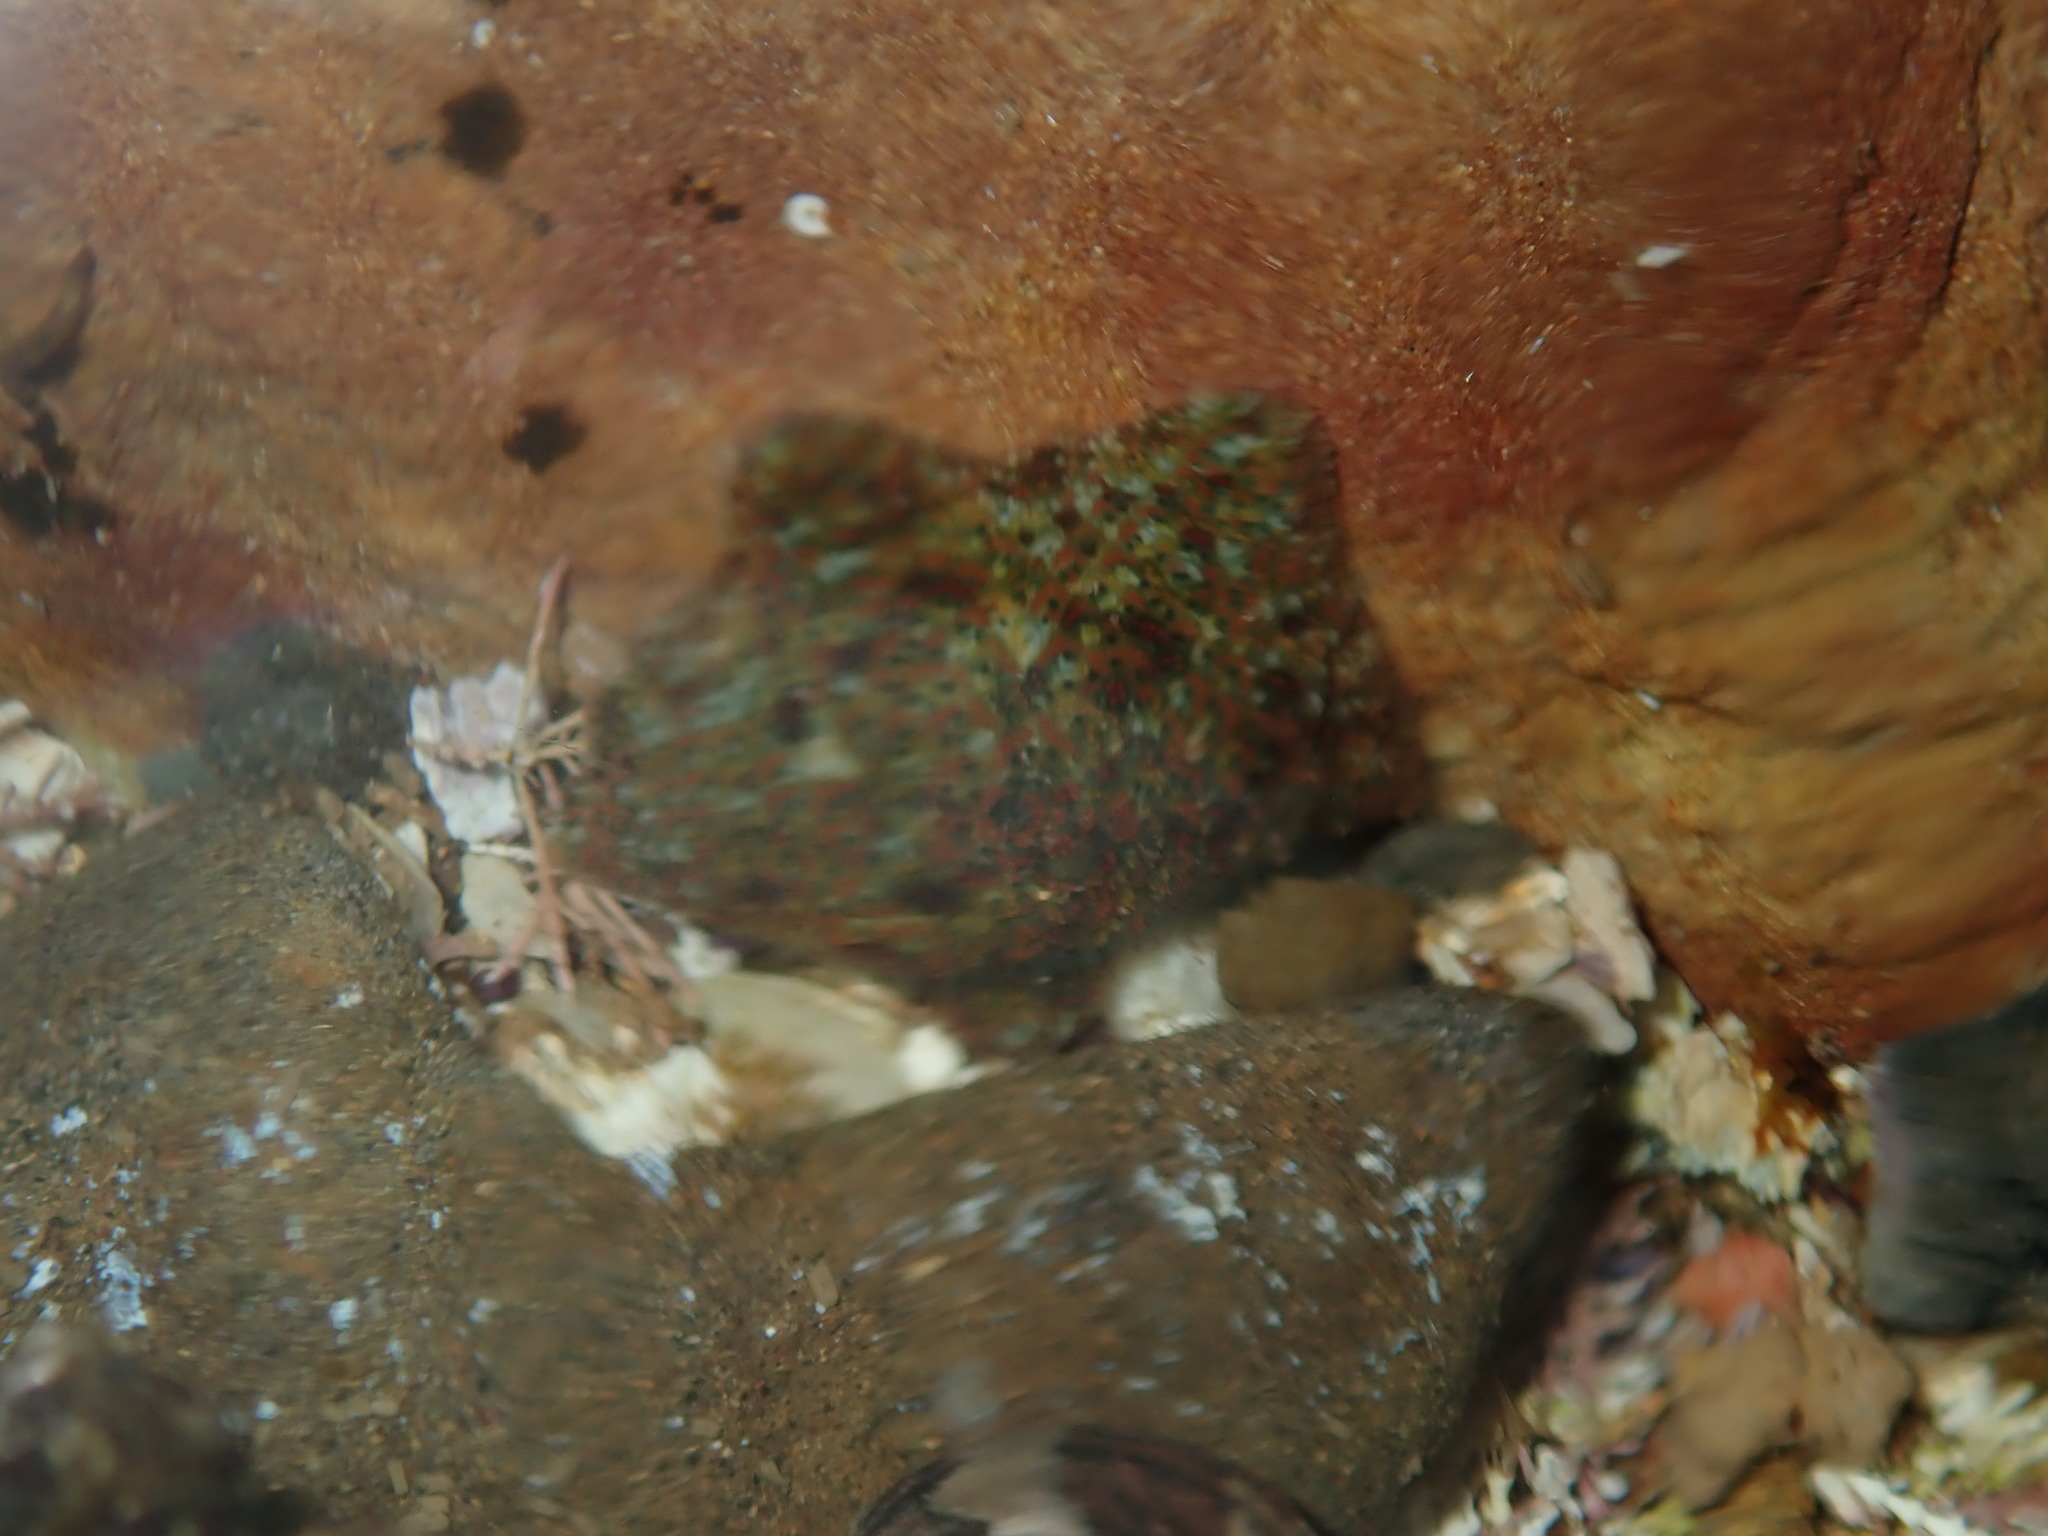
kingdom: Animalia
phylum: Echinodermata
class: Asteroidea
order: Valvatida
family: Asterinidae
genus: Parvulastra
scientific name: Parvulastra exigua
